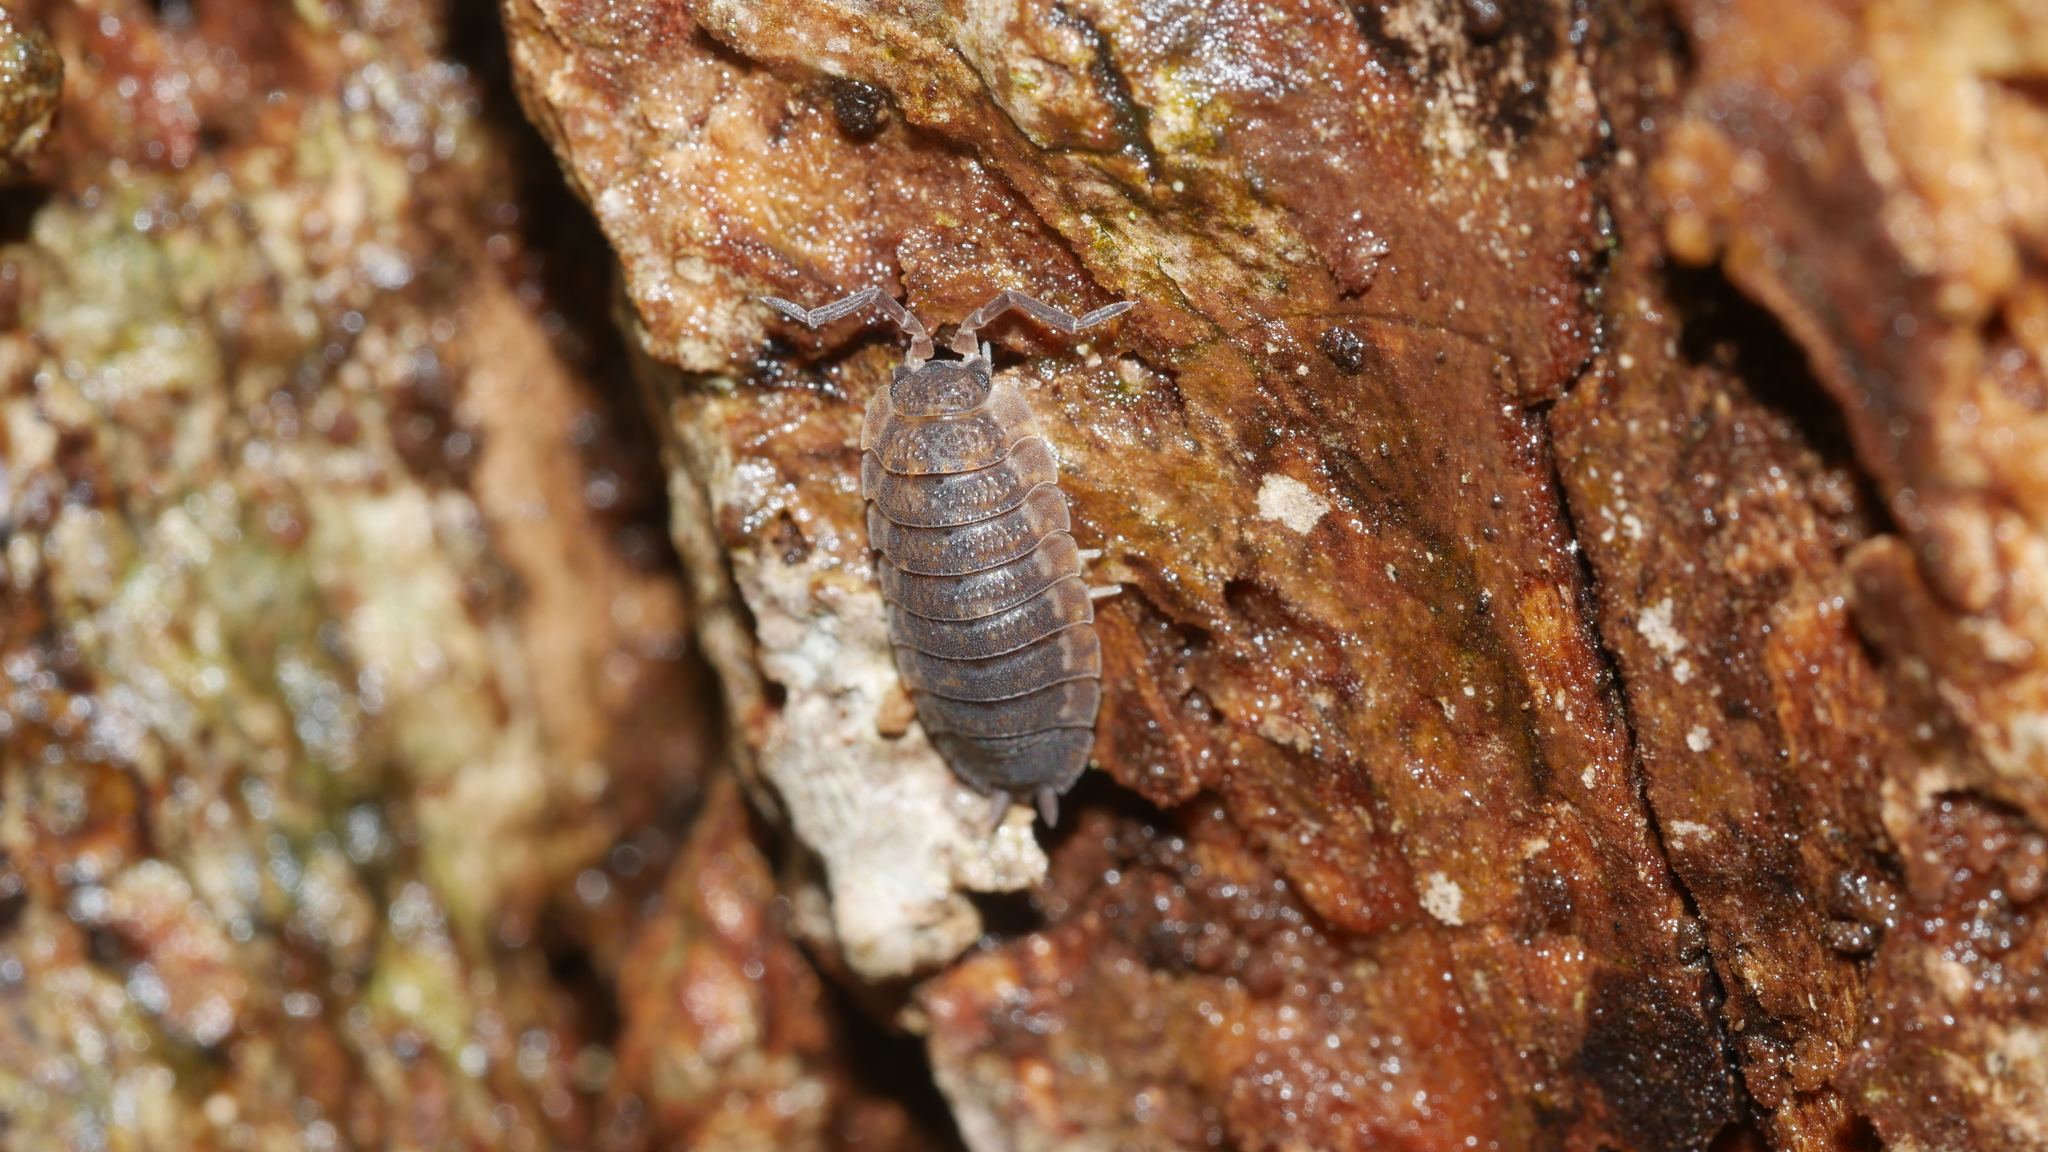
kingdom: Animalia
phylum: Arthropoda
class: Malacostraca
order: Isopoda
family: Porcellionidae
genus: Porcellio
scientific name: Porcellio scaber
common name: Common rough woodlouse
